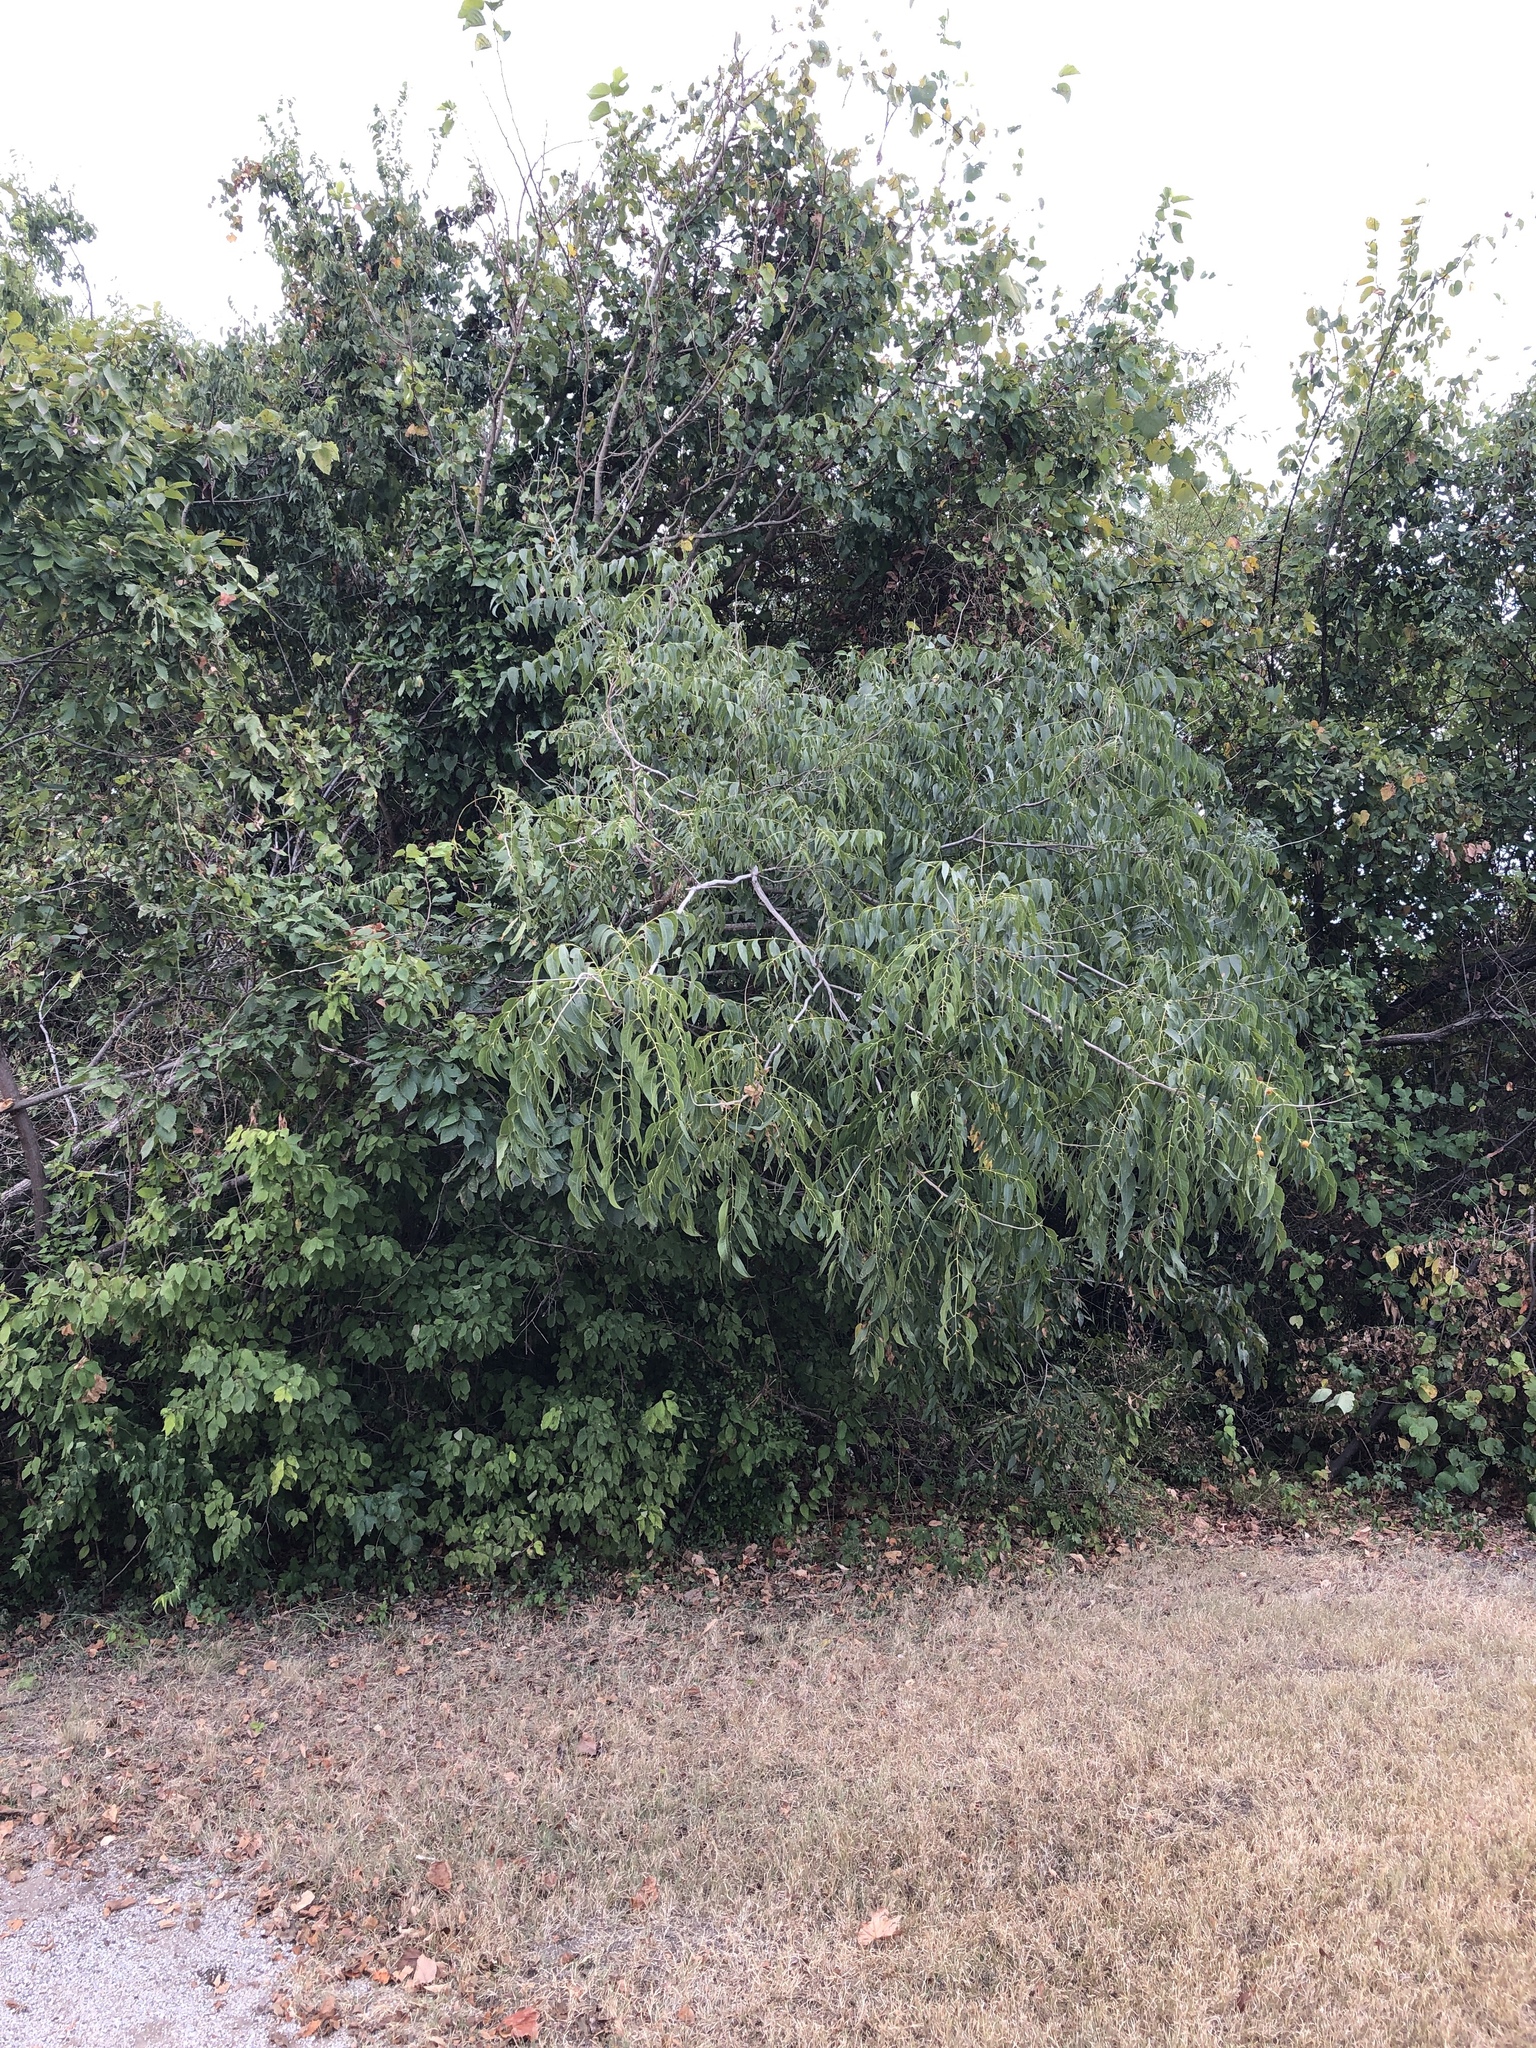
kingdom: Plantae
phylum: Tracheophyta
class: Magnoliopsida
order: Sapindales
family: Sapindaceae
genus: Sapindus
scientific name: Sapindus drummondii
